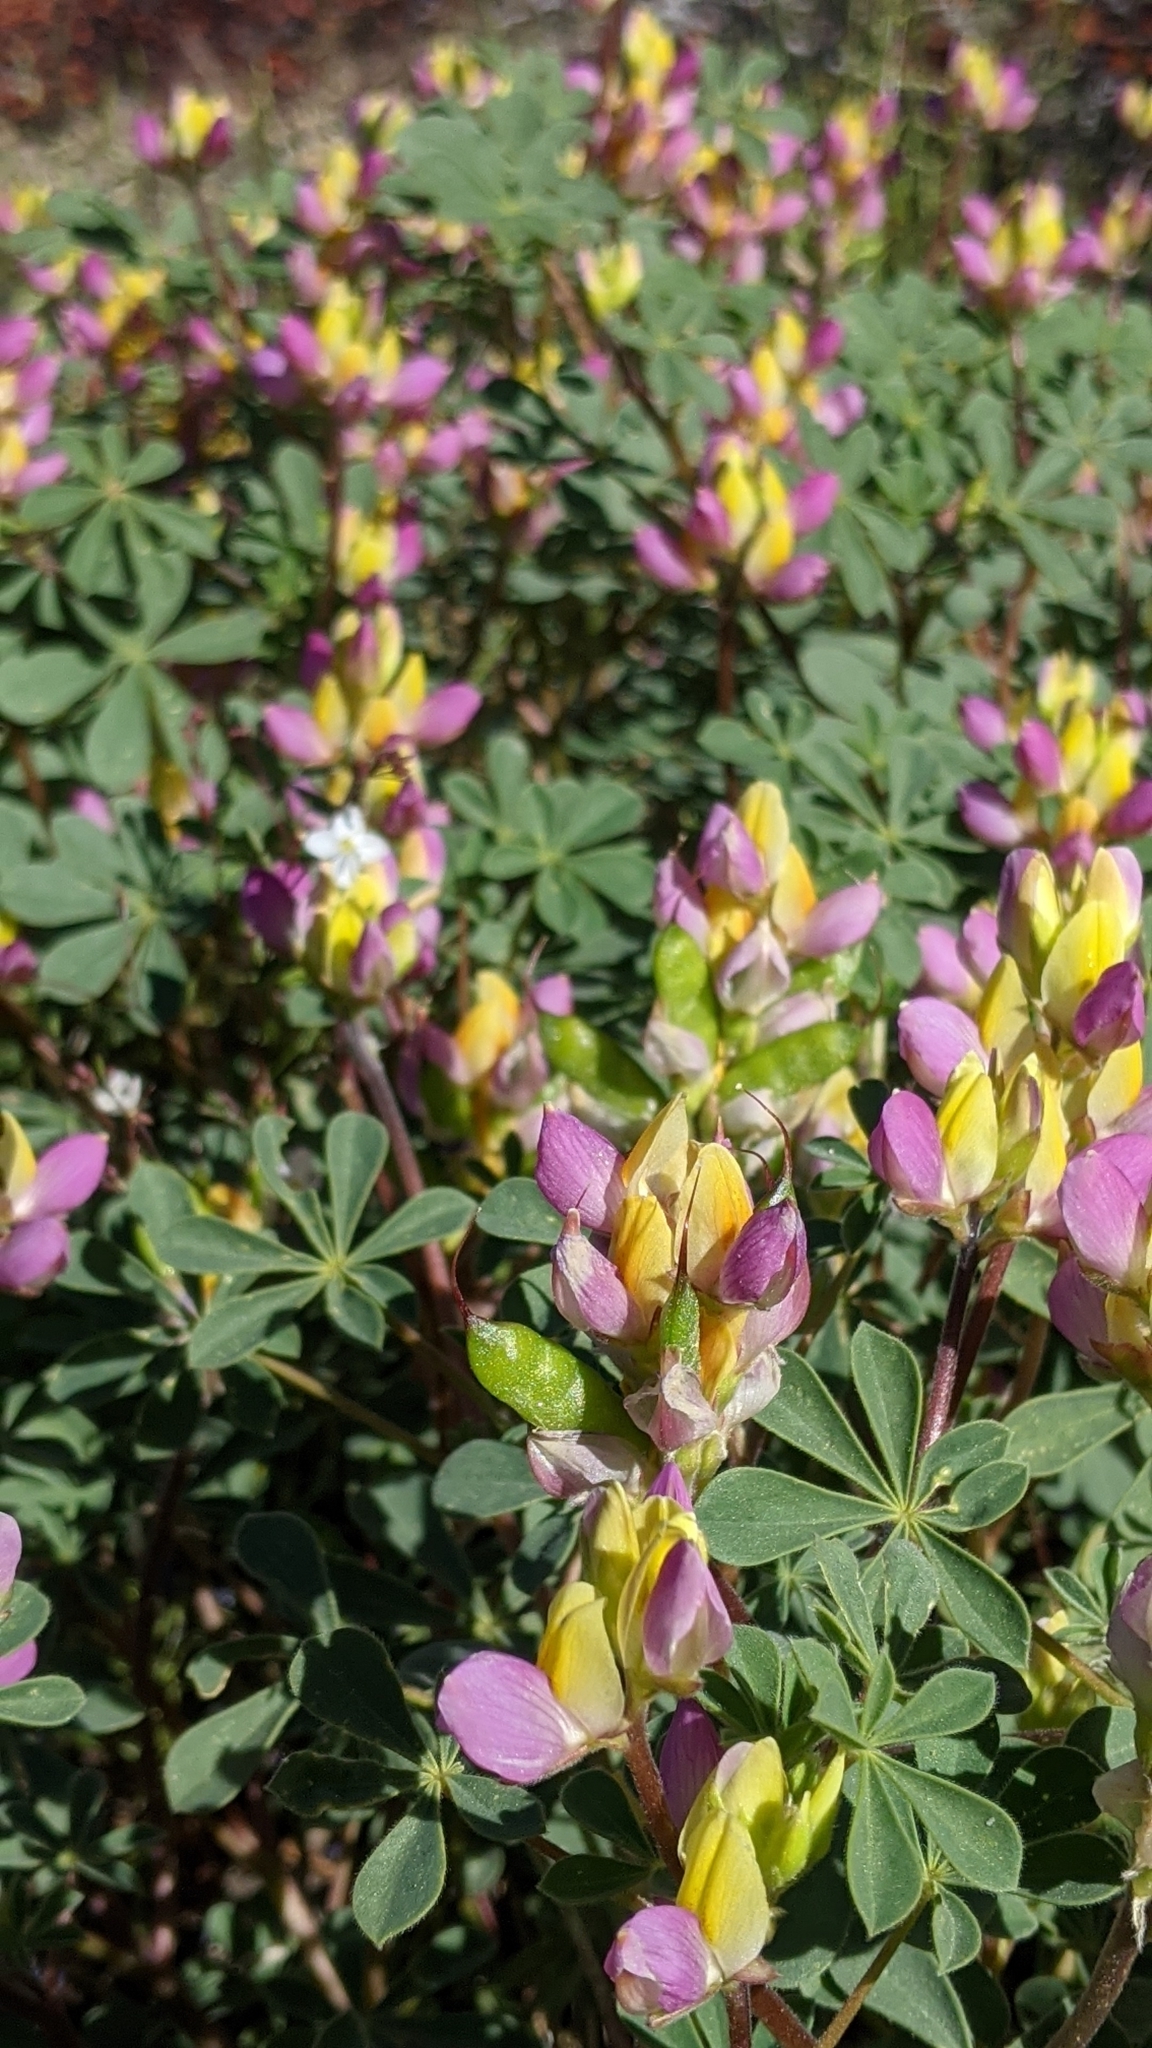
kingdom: Plantae
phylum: Tracheophyta
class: Magnoliopsida
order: Fabales
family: Fabaceae
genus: Lupinus
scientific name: Lupinus stiversii
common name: Harlequin lupine
